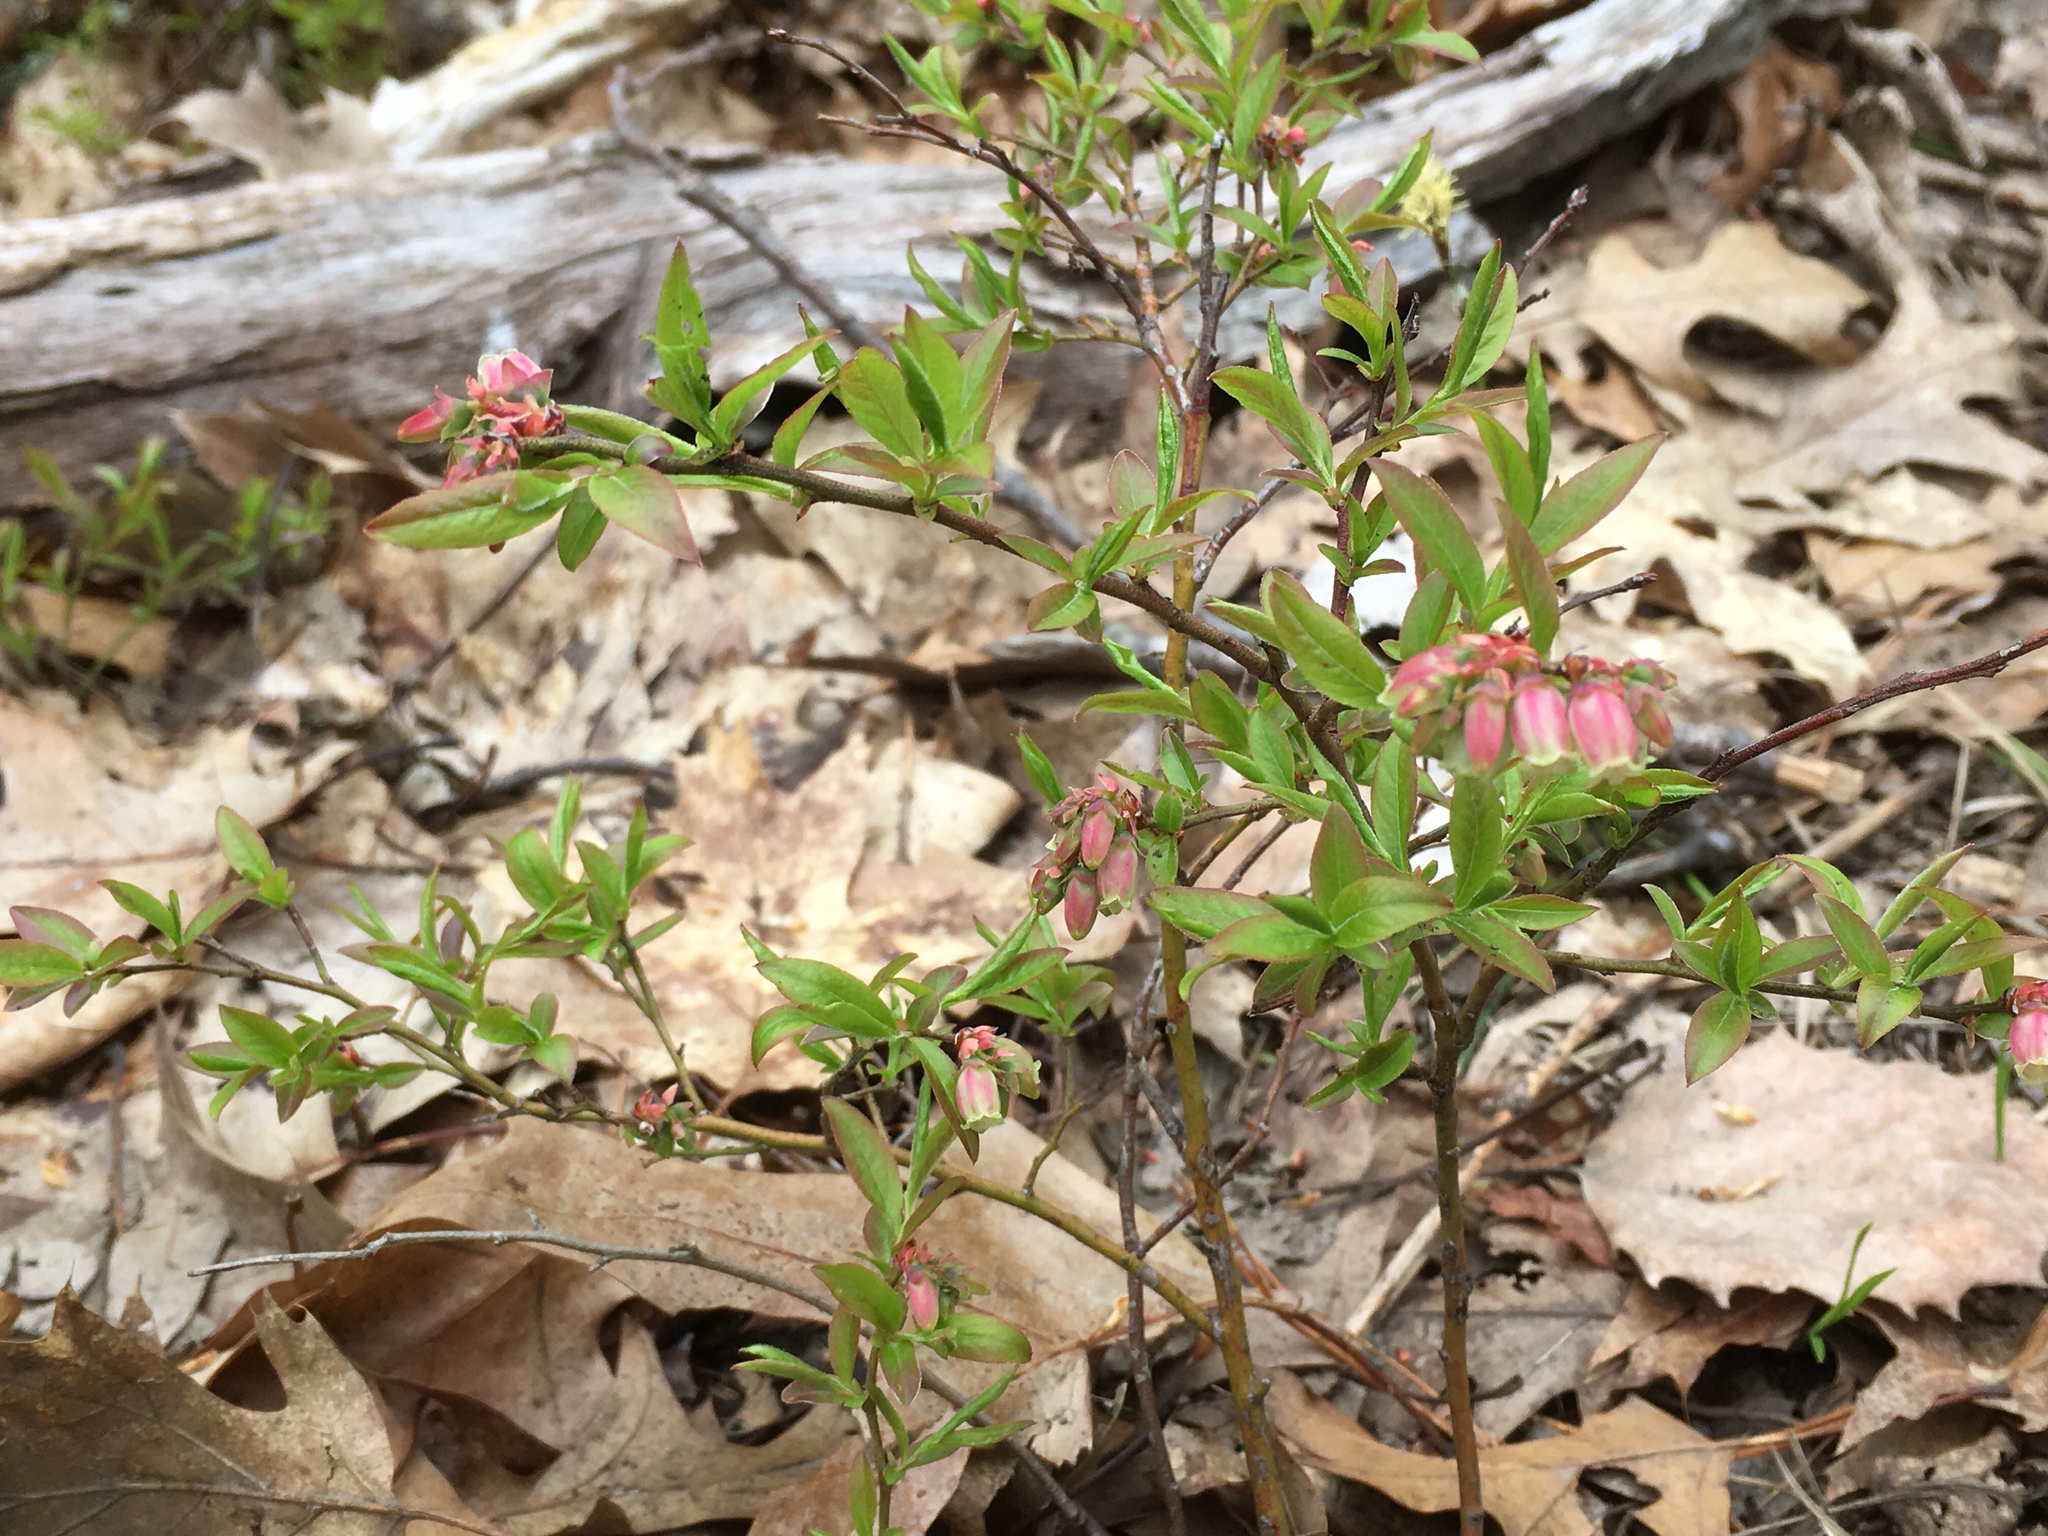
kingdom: Plantae
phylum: Tracheophyta
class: Magnoliopsida
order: Ericales
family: Ericaceae
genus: Vaccinium
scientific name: Vaccinium angustifolium
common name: Early lowbush blueberry
